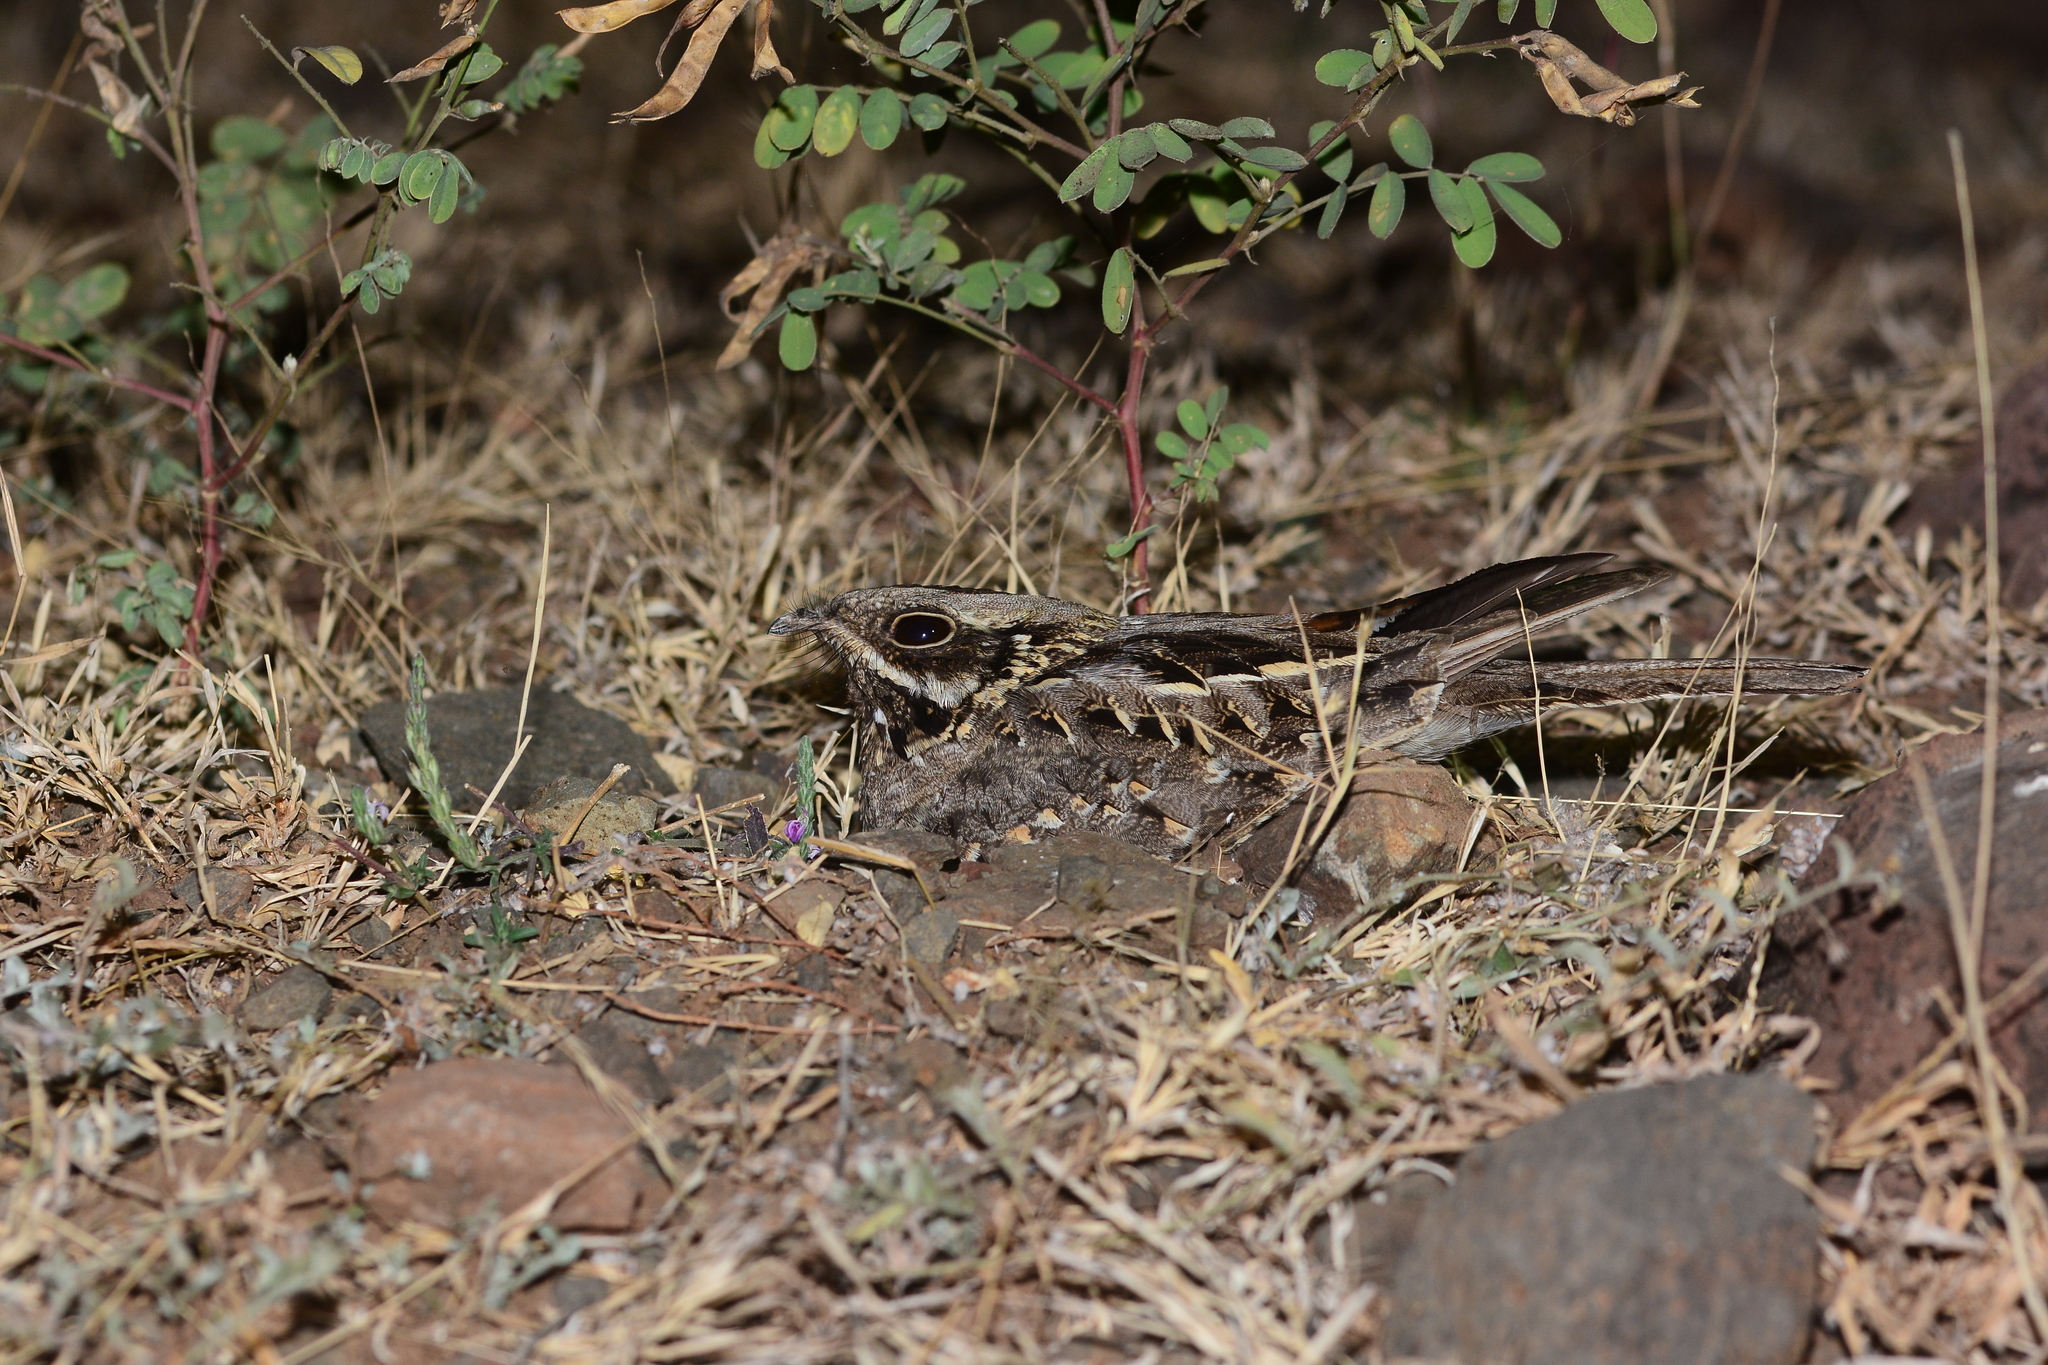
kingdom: Animalia
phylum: Chordata
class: Aves
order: Caprimulgiformes
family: Caprimulgidae
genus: Caprimulgus
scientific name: Caprimulgus asiaticus
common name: Indian nightjar
